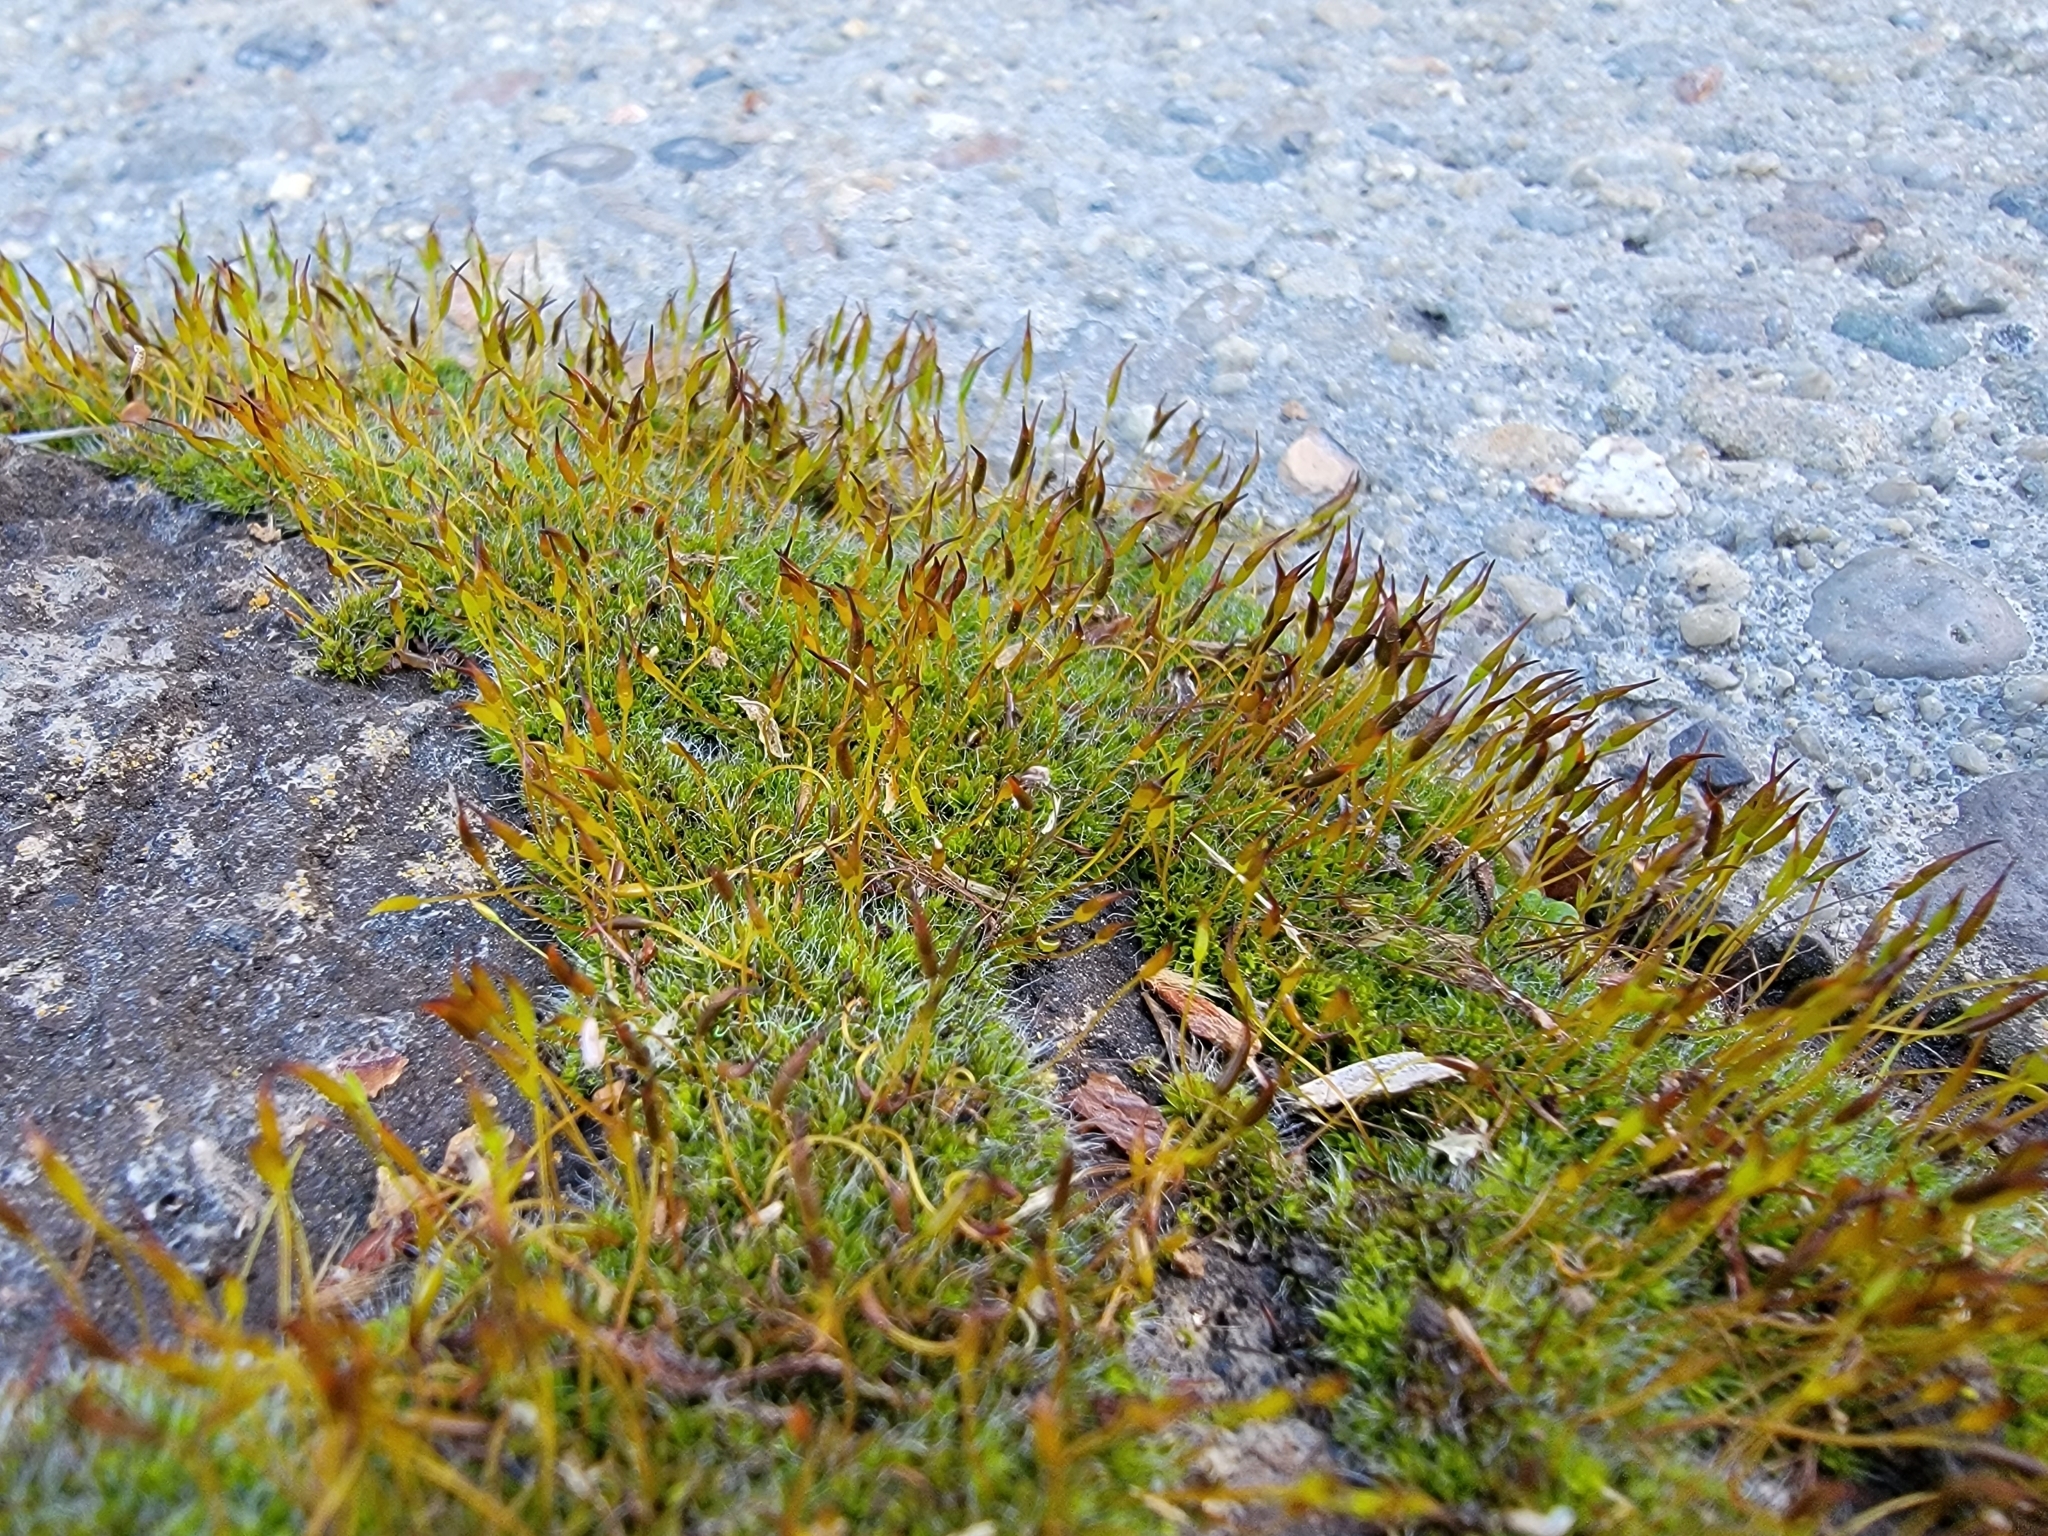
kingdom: Plantae
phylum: Bryophyta
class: Bryopsida
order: Pottiales
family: Pottiaceae
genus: Tortula
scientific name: Tortula muralis
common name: Wall screw-moss
